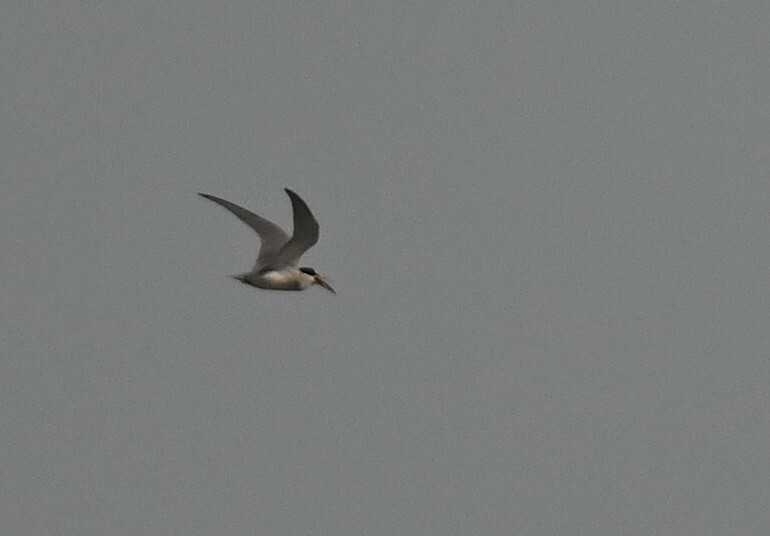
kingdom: Animalia
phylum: Chordata
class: Aves
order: Charadriiformes
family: Laridae
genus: Sternula
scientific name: Sternula antillarum
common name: Least tern
